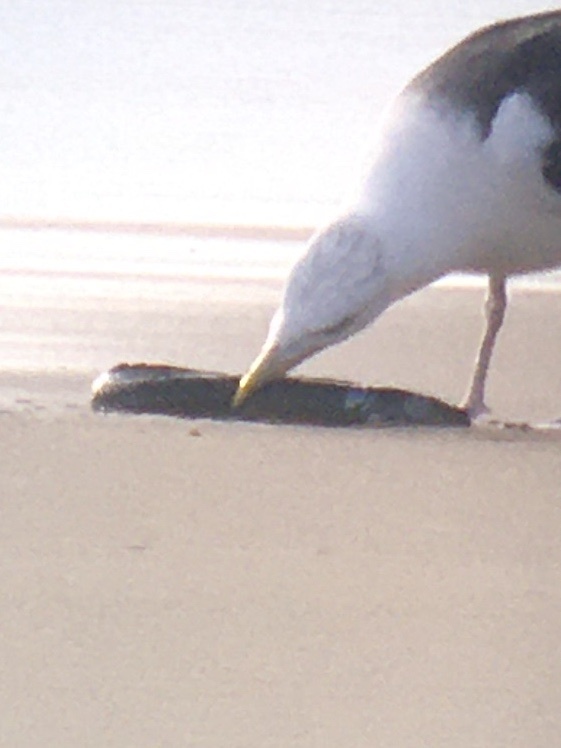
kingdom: Animalia
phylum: Chordata
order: Anguilliformes
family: Anguillidae
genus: Anguilla
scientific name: Anguilla rostrata
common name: American eel
